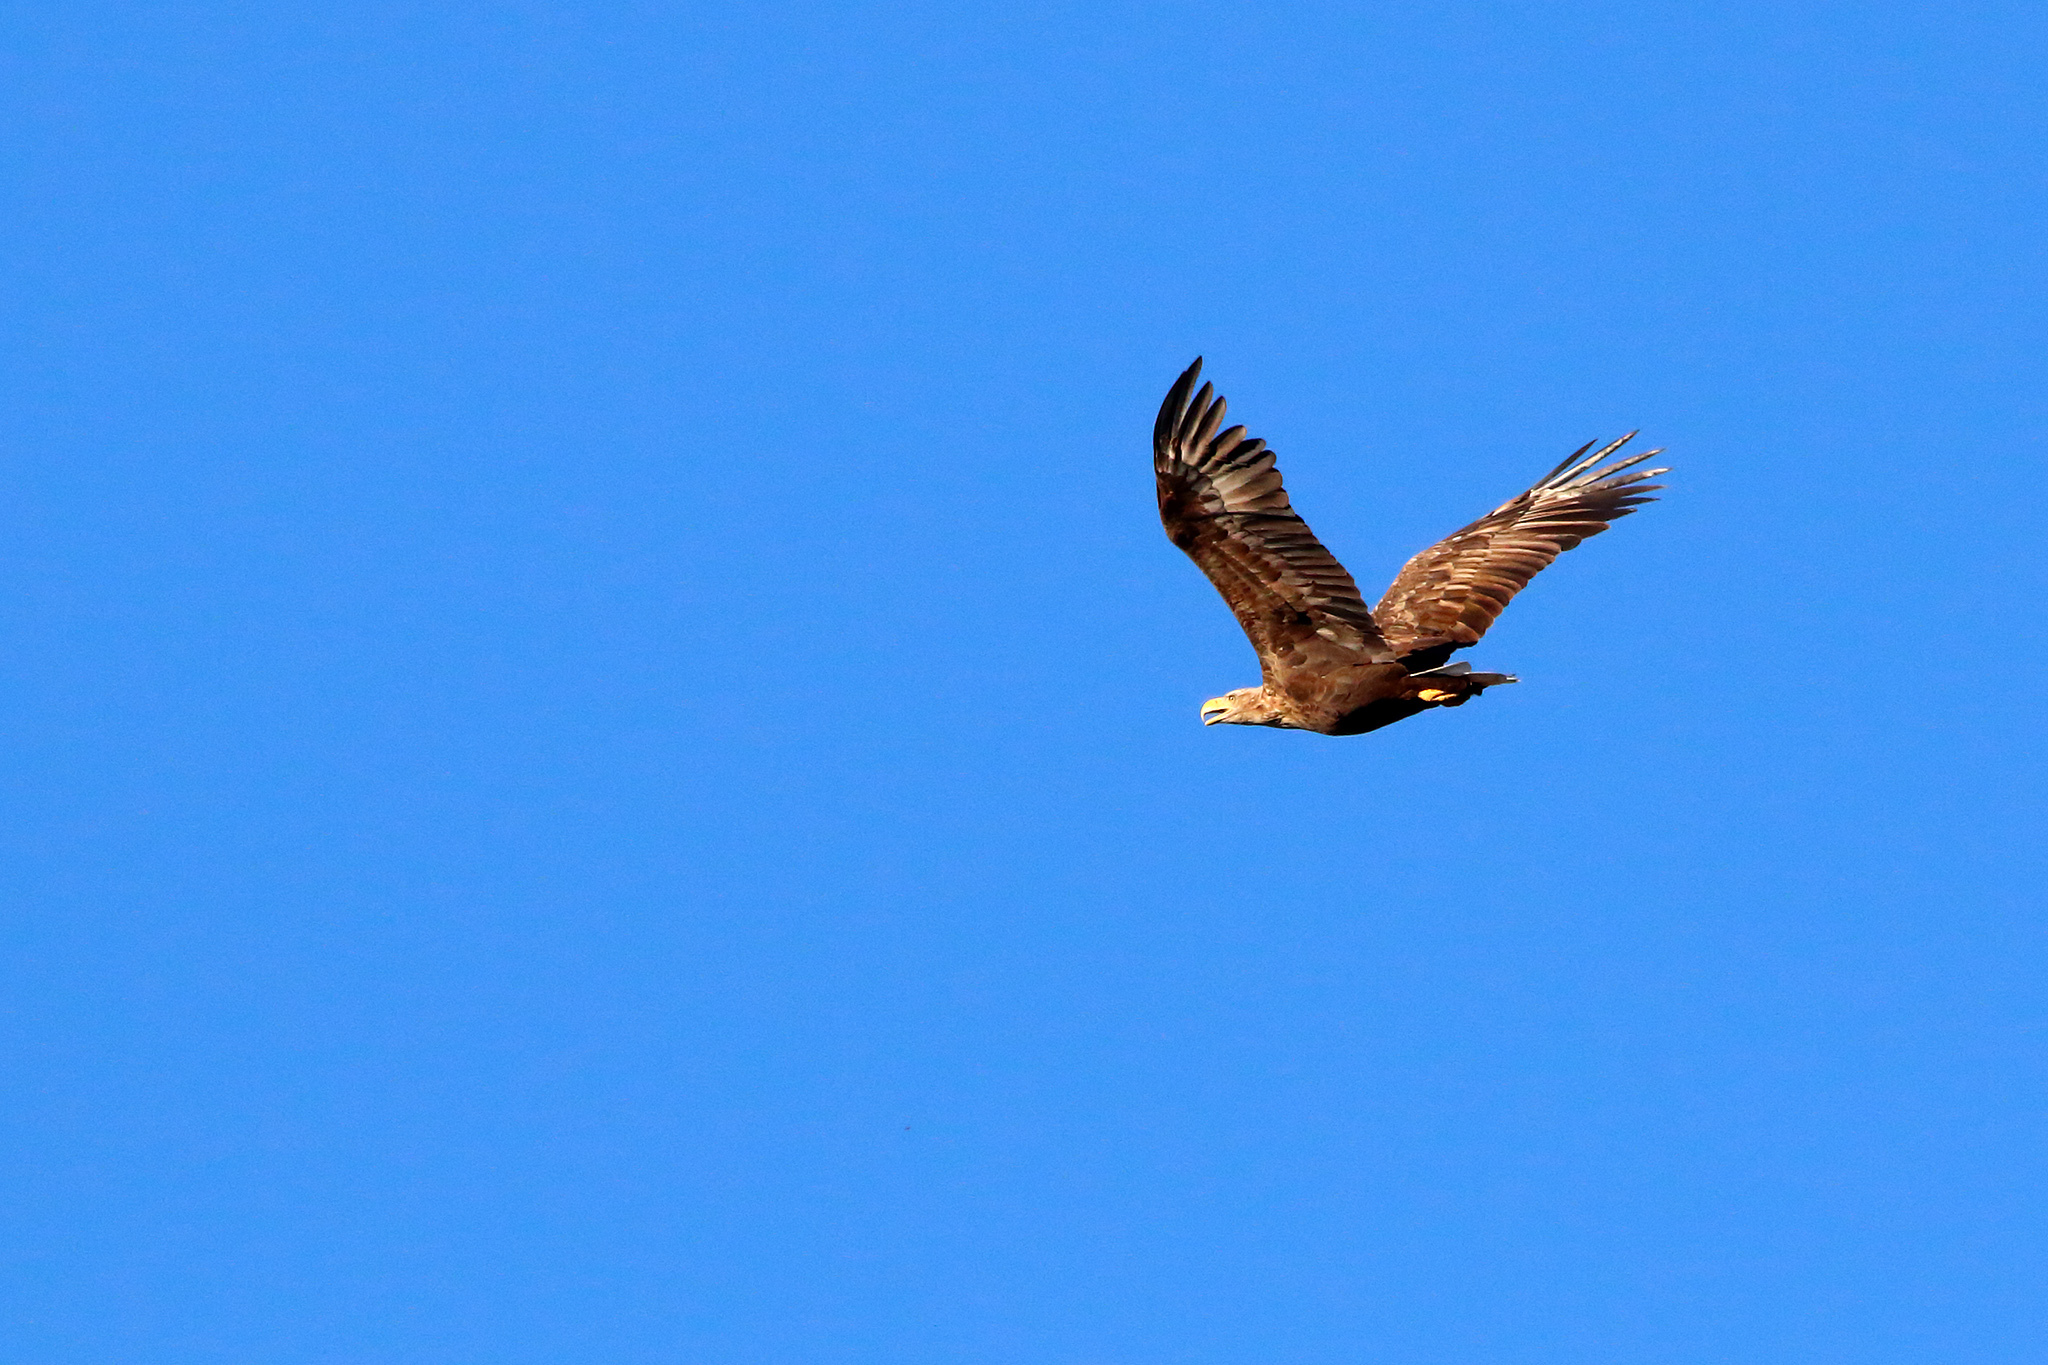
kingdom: Animalia
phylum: Chordata
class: Aves
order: Accipitriformes
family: Accipitridae
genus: Haliaeetus
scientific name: Haliaeetus albicilla
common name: White-tailed eagle
